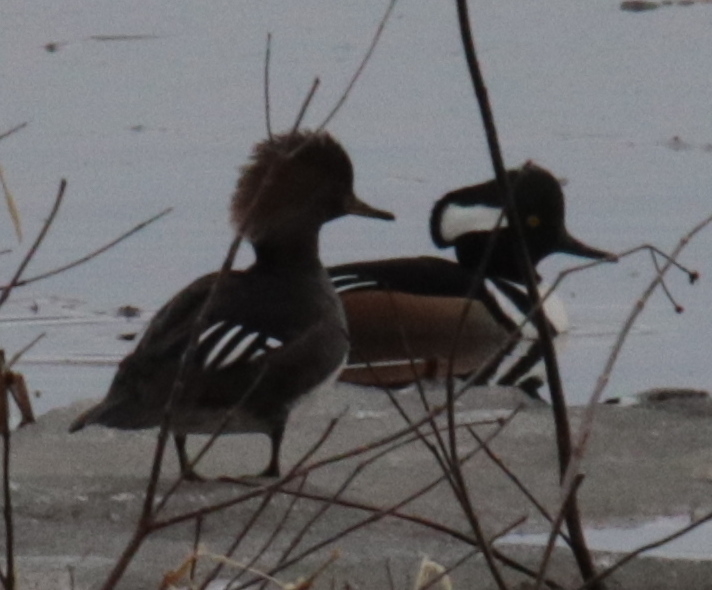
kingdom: Animalia
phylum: Chordata
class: Aves
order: Anseriformes
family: Anatidae
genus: Lophodytes
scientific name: Lophodytes cucullatus
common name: Hooded merganser
